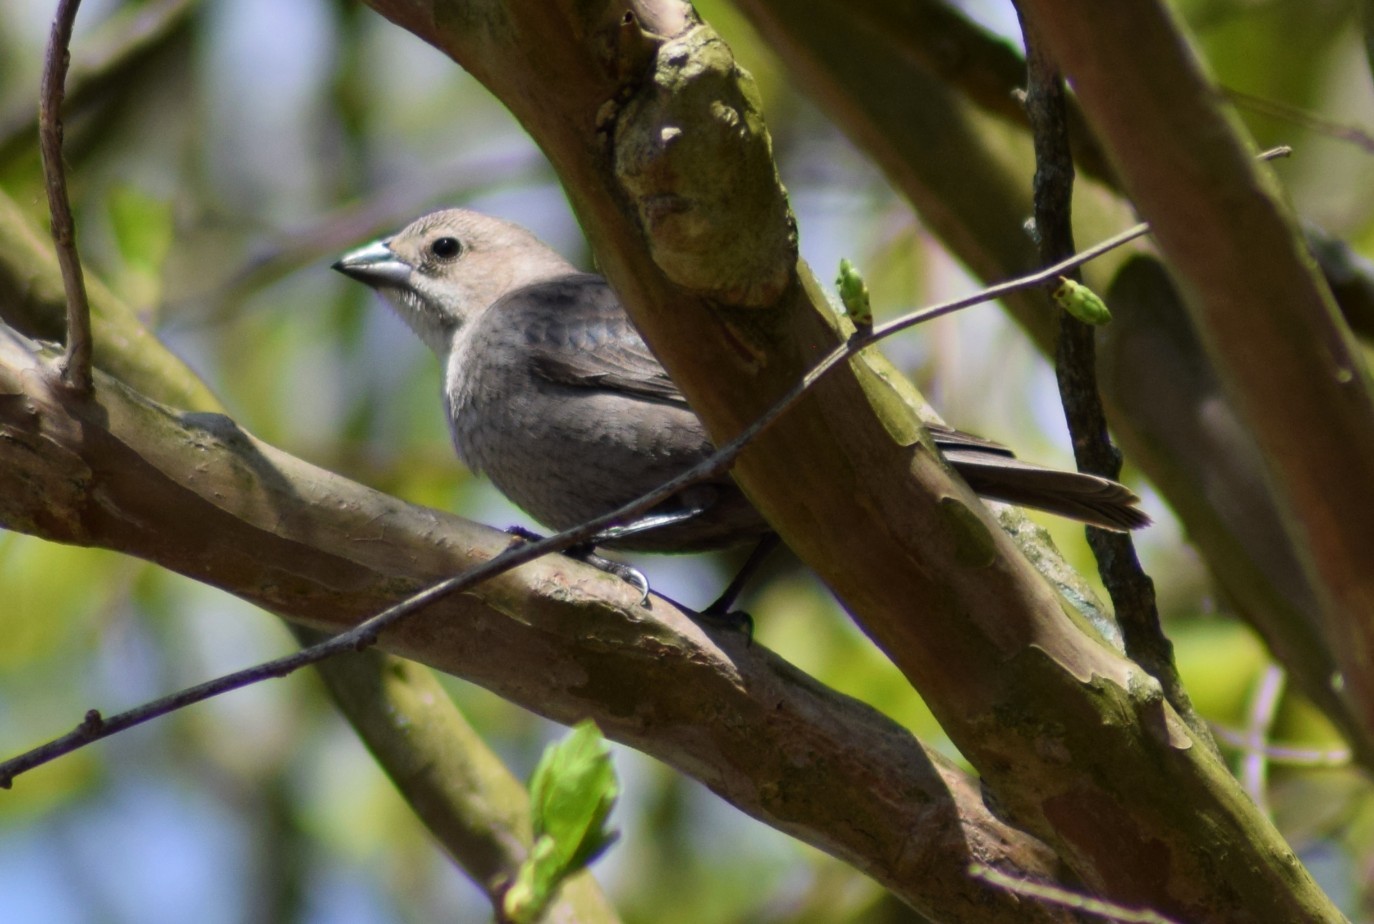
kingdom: Animalia
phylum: Chordata
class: Aves
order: Passeriformes
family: Icteridae
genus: Molothrus
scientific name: Molothrus ater
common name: Brown-headed cowbird
